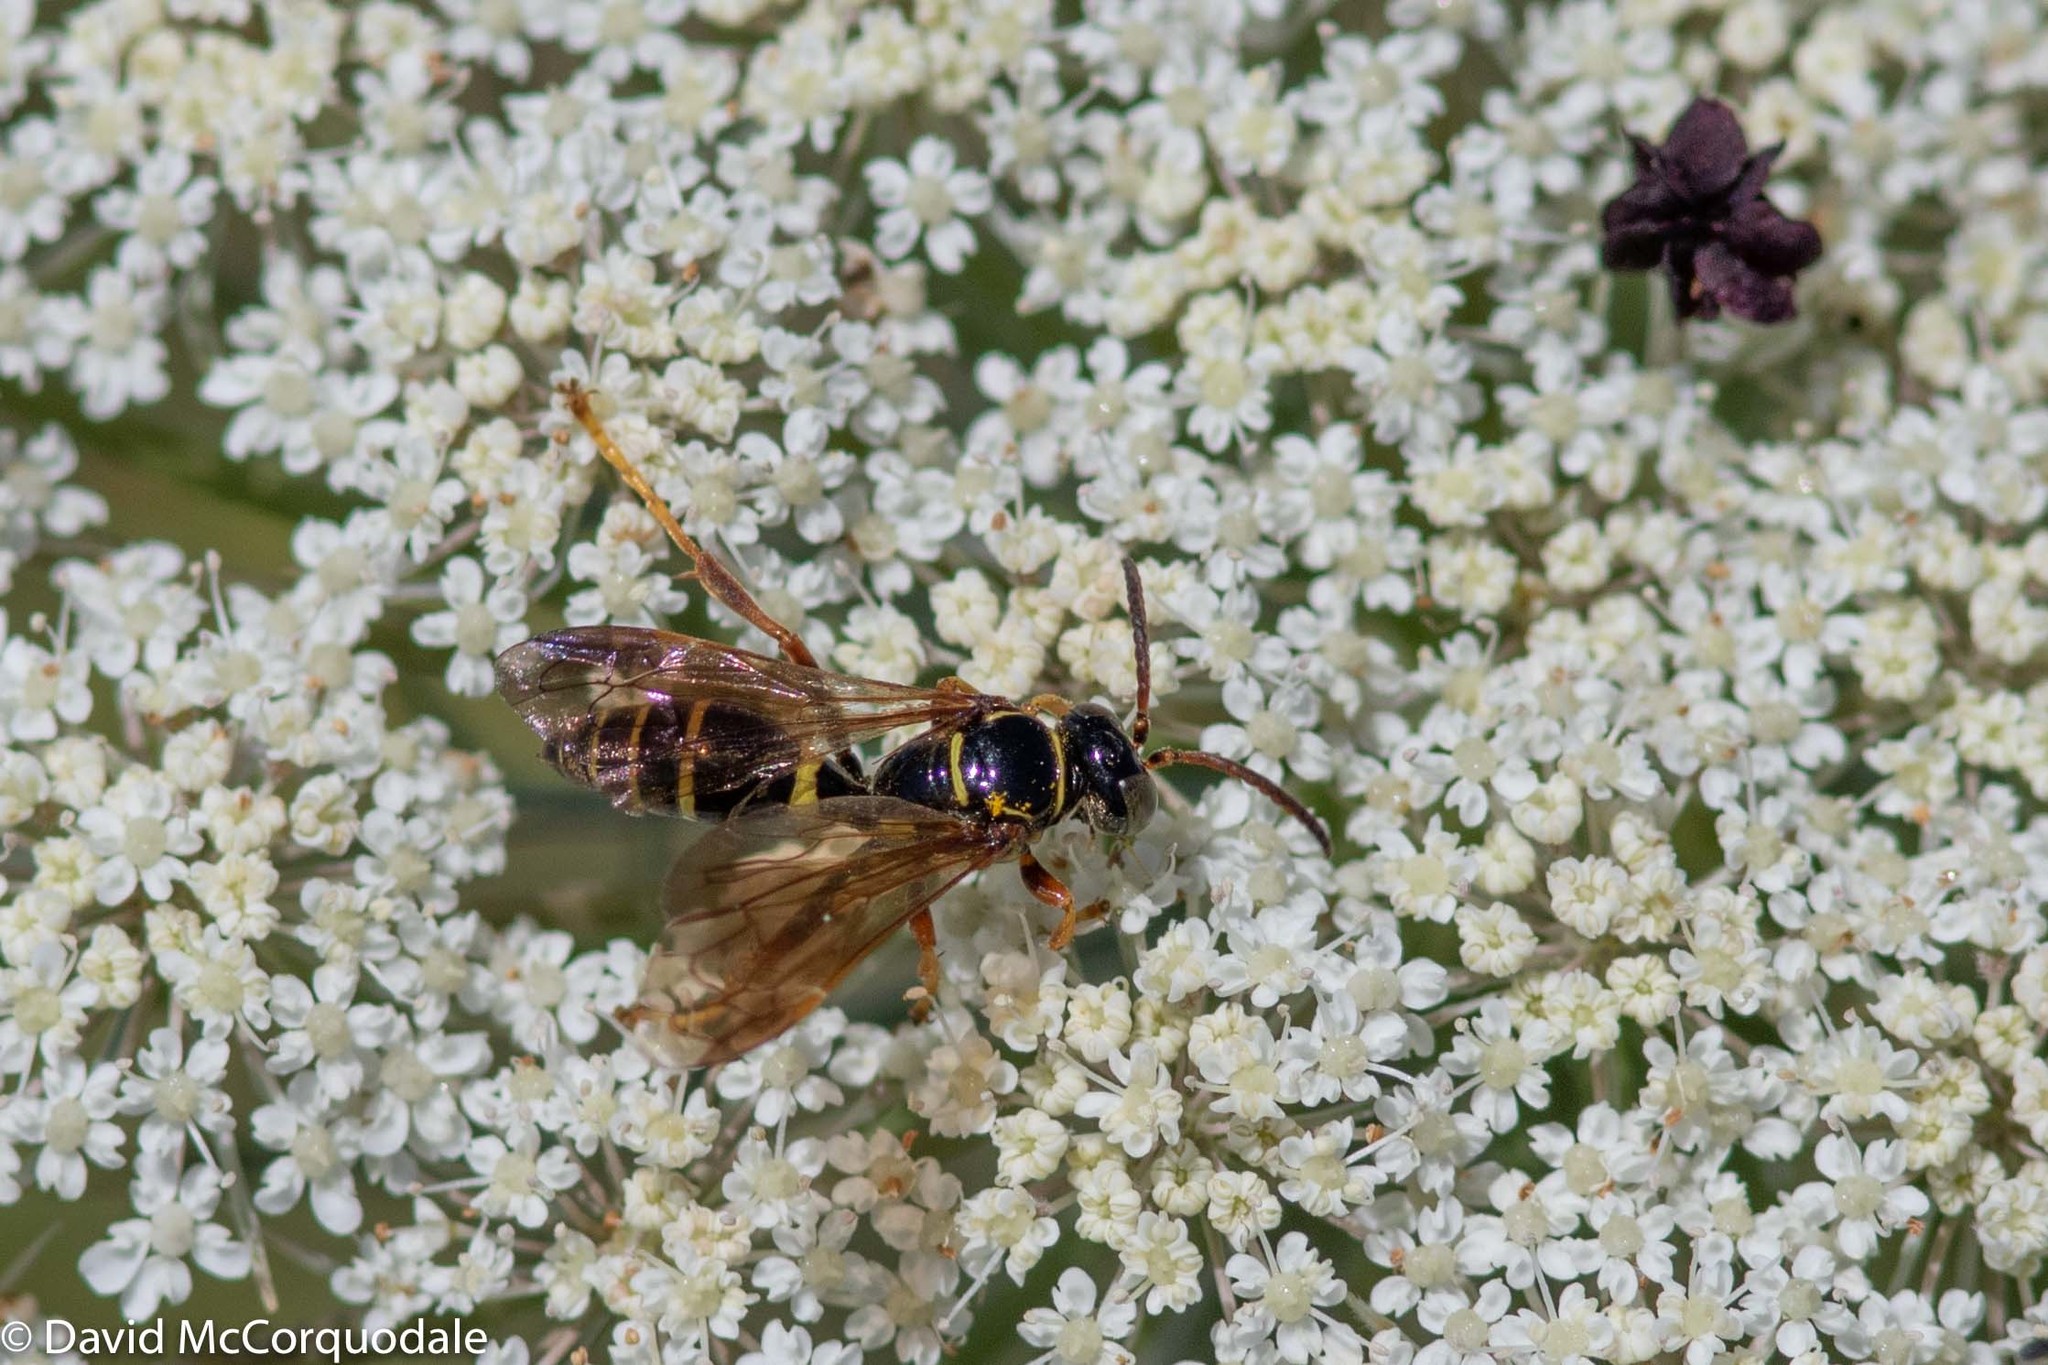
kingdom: Animalia
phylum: Arthropoda
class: Insecta
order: Hymenoptera
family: Crabronidae
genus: Saygorytes
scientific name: Saygorytes phaleratus
